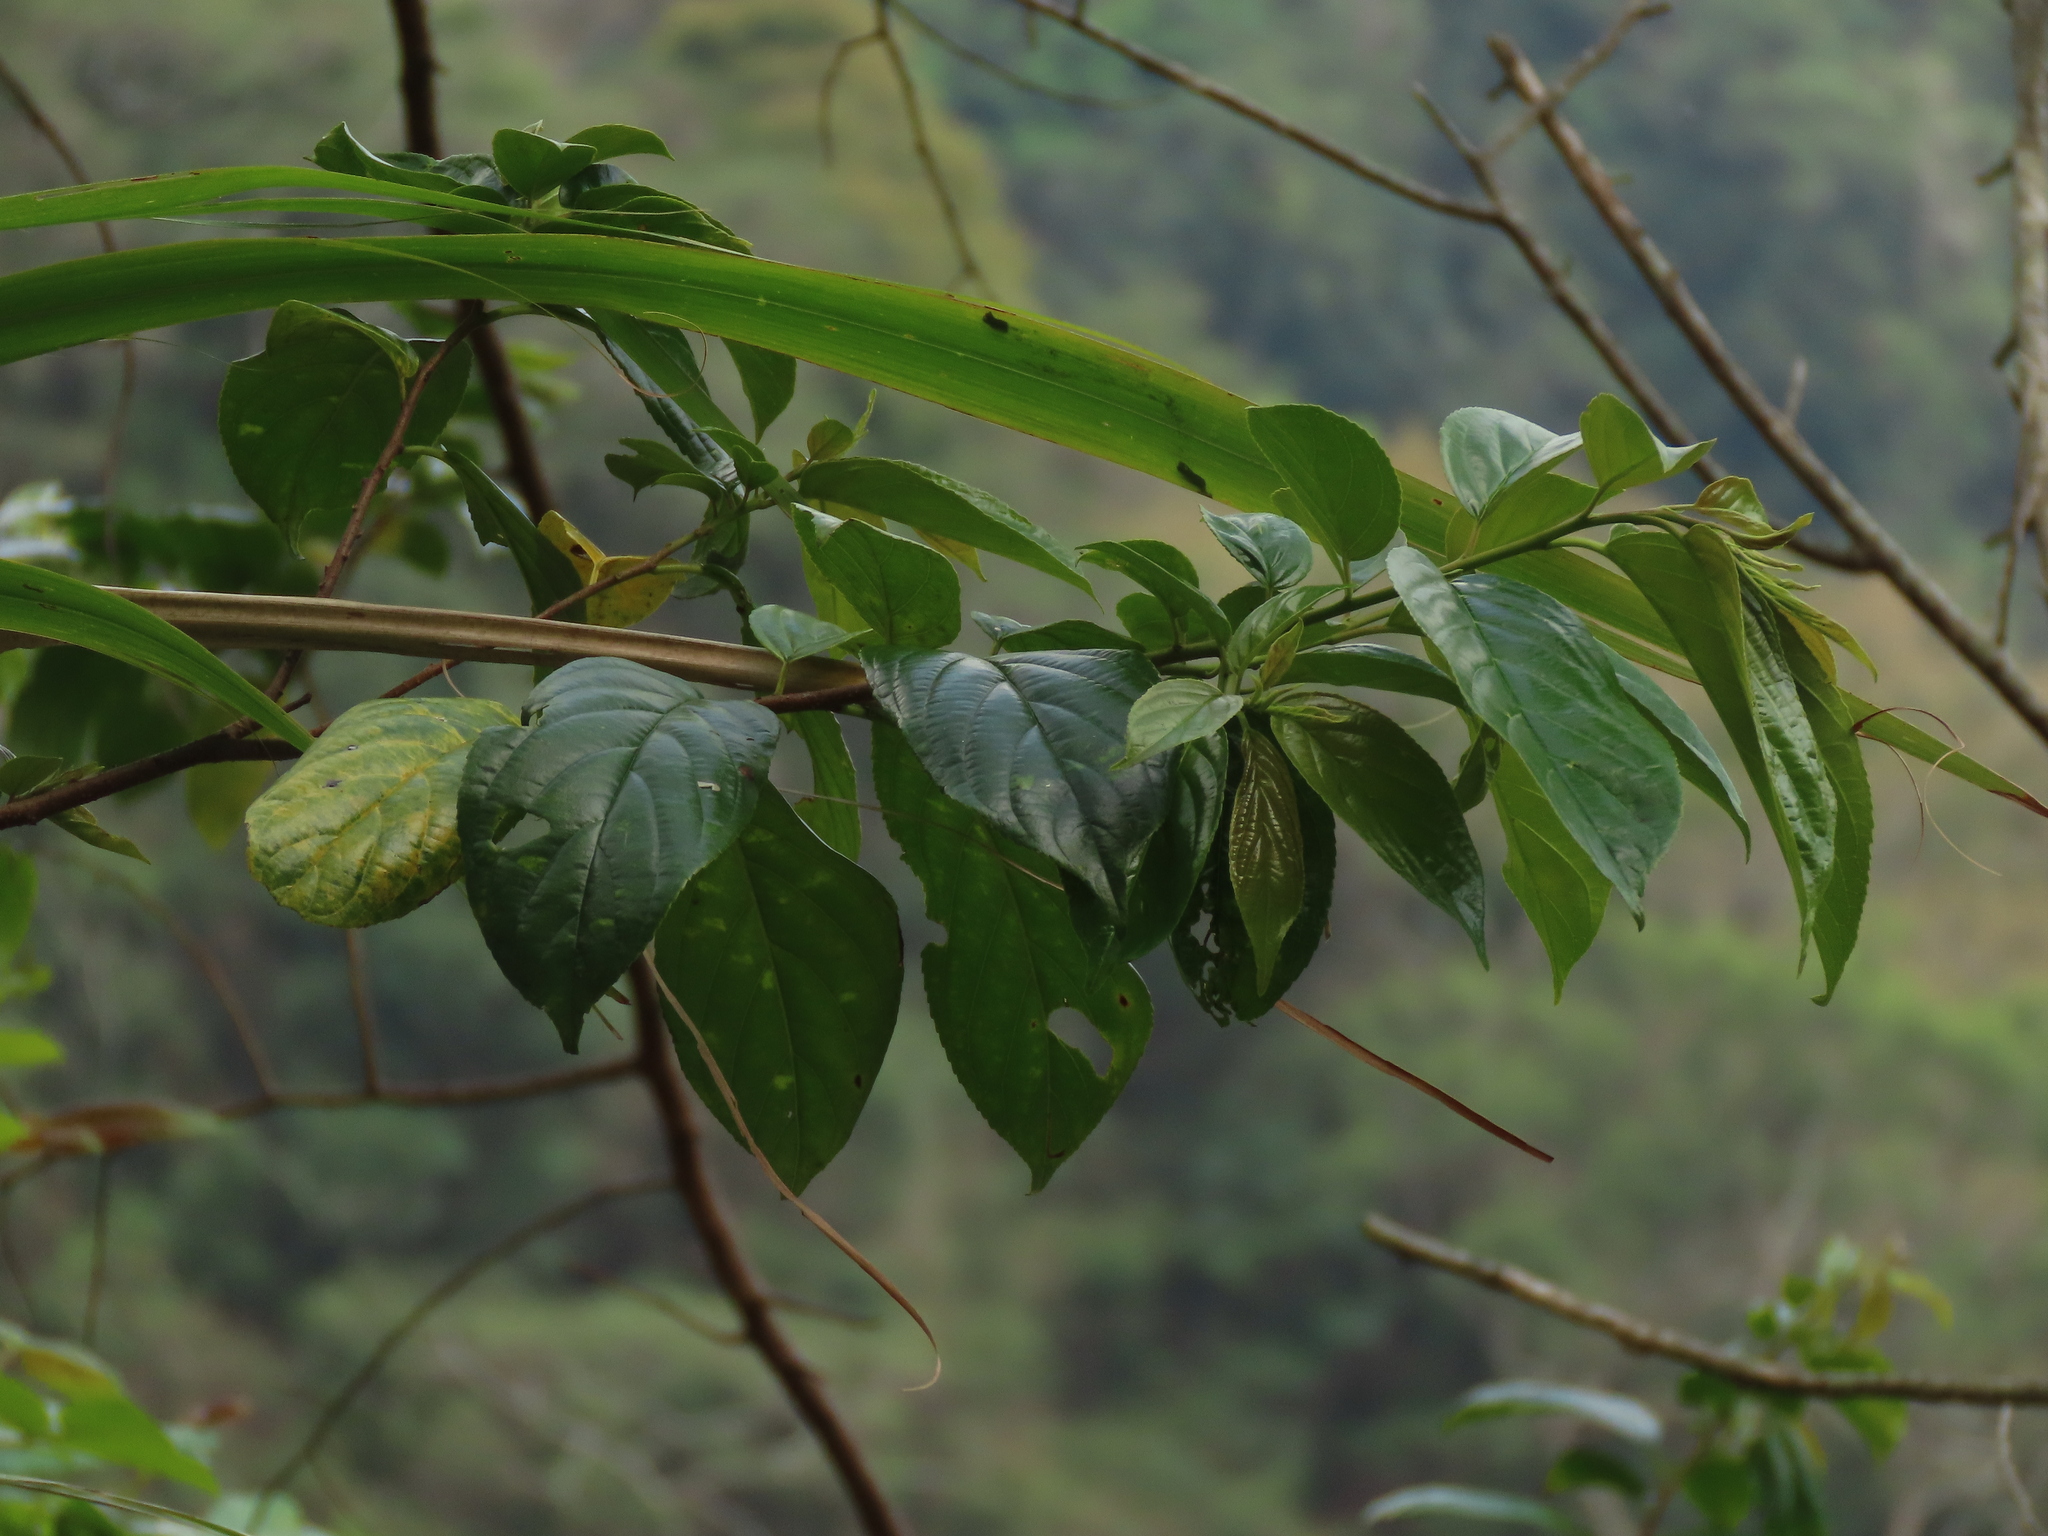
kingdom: Plantae
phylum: Tracheophyta
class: Magnoliopsida
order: Rosales
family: Rhamnaceae
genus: Rhamnus
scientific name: Rhamnus formosana
